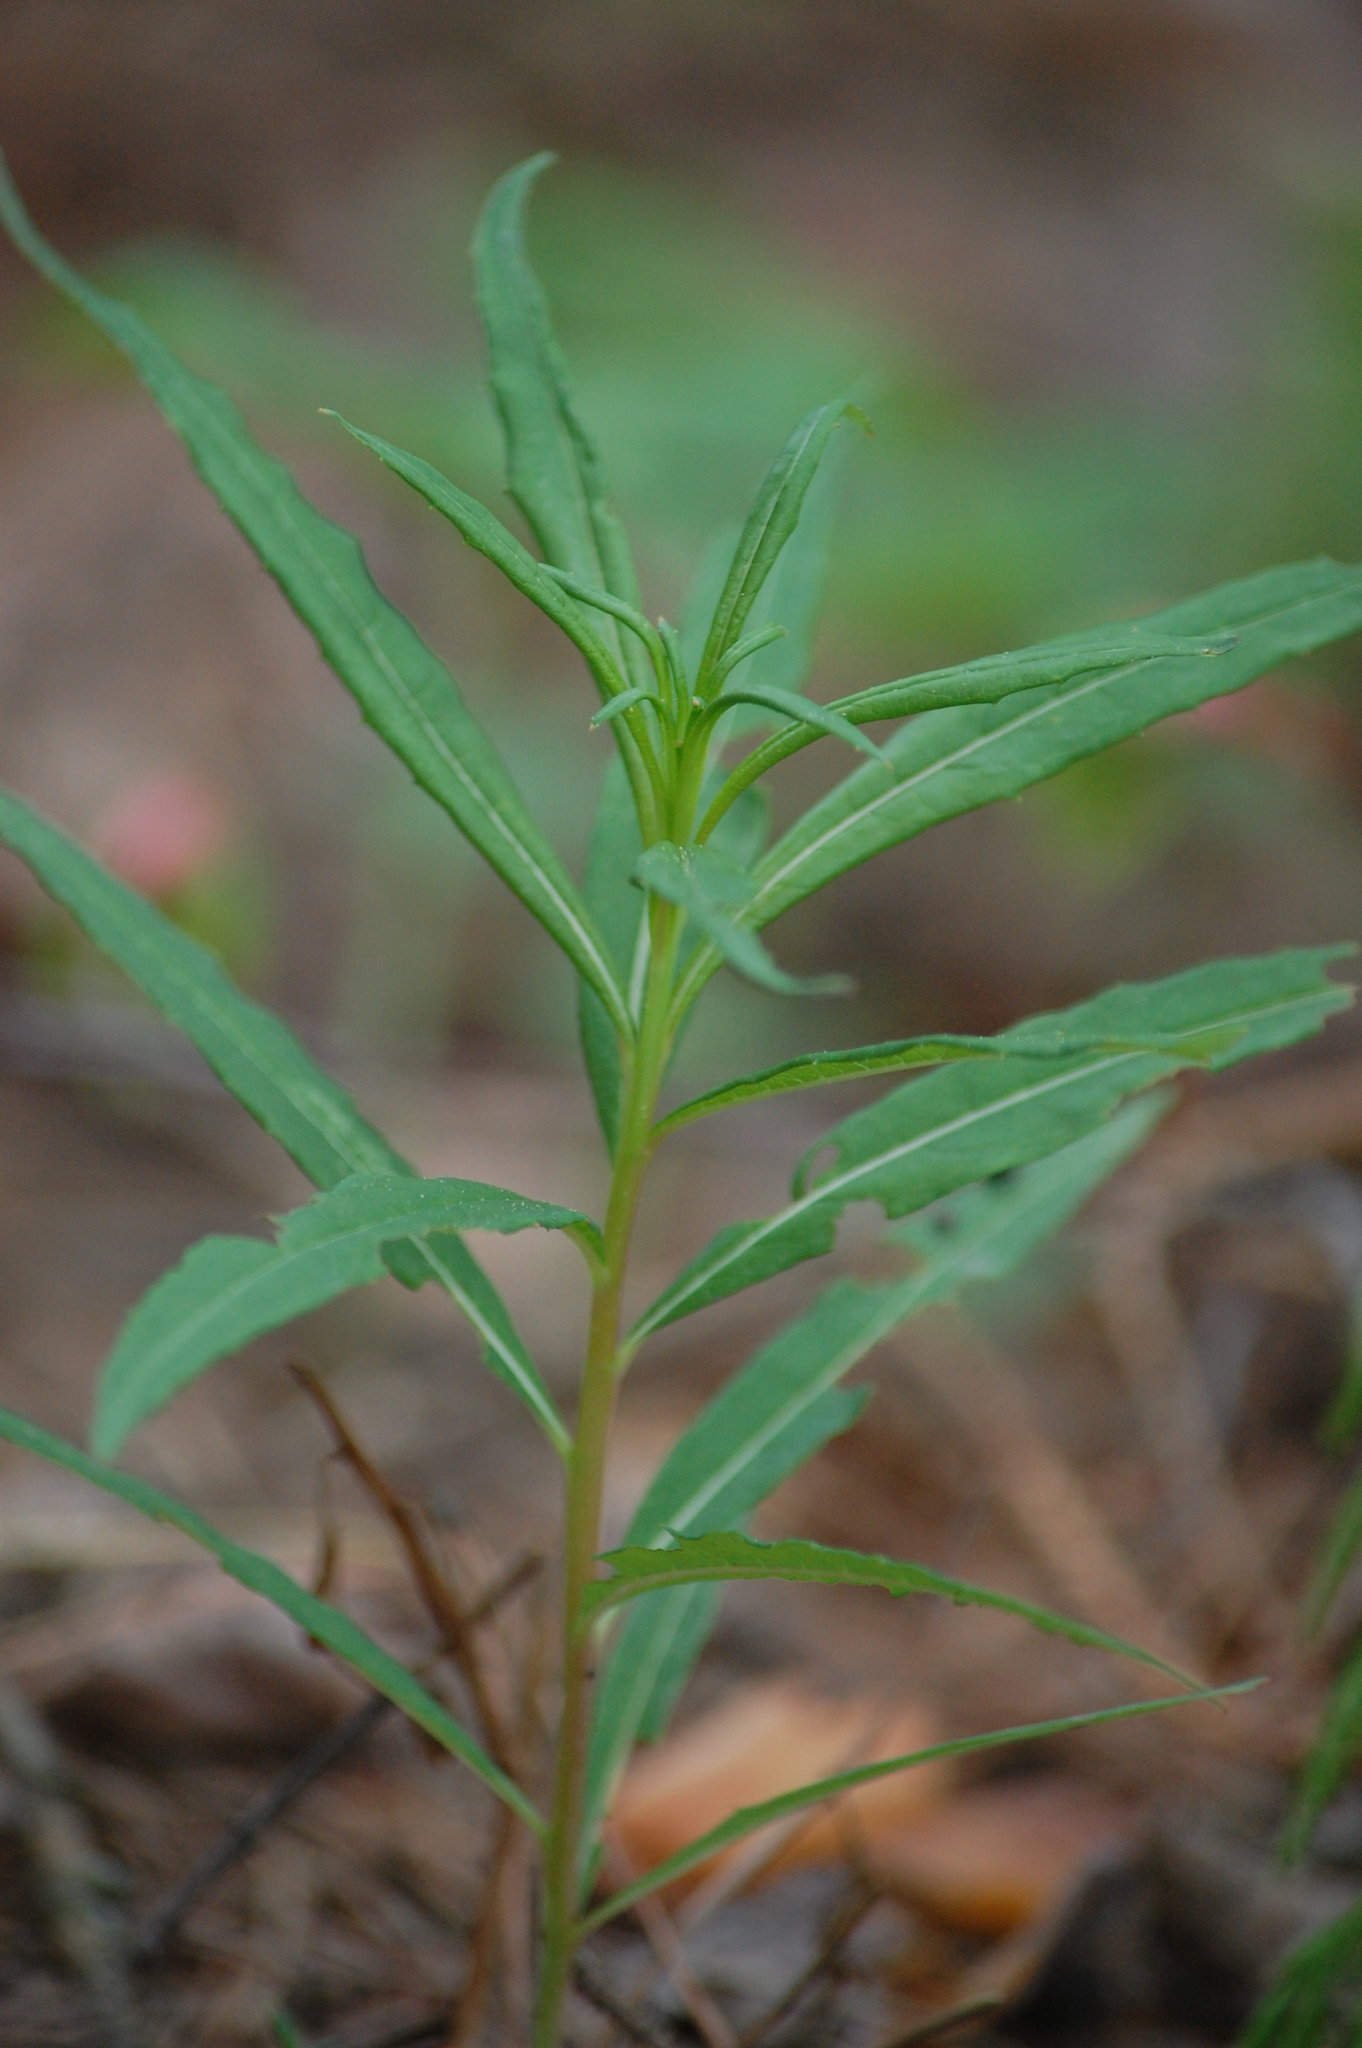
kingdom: Plantae
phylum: Tracheophyta
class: Magnoliopsida
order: Myrtales
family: Onagraceae
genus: Chamaenerion
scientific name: Chamaenerion angustifolium
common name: Fireweed
